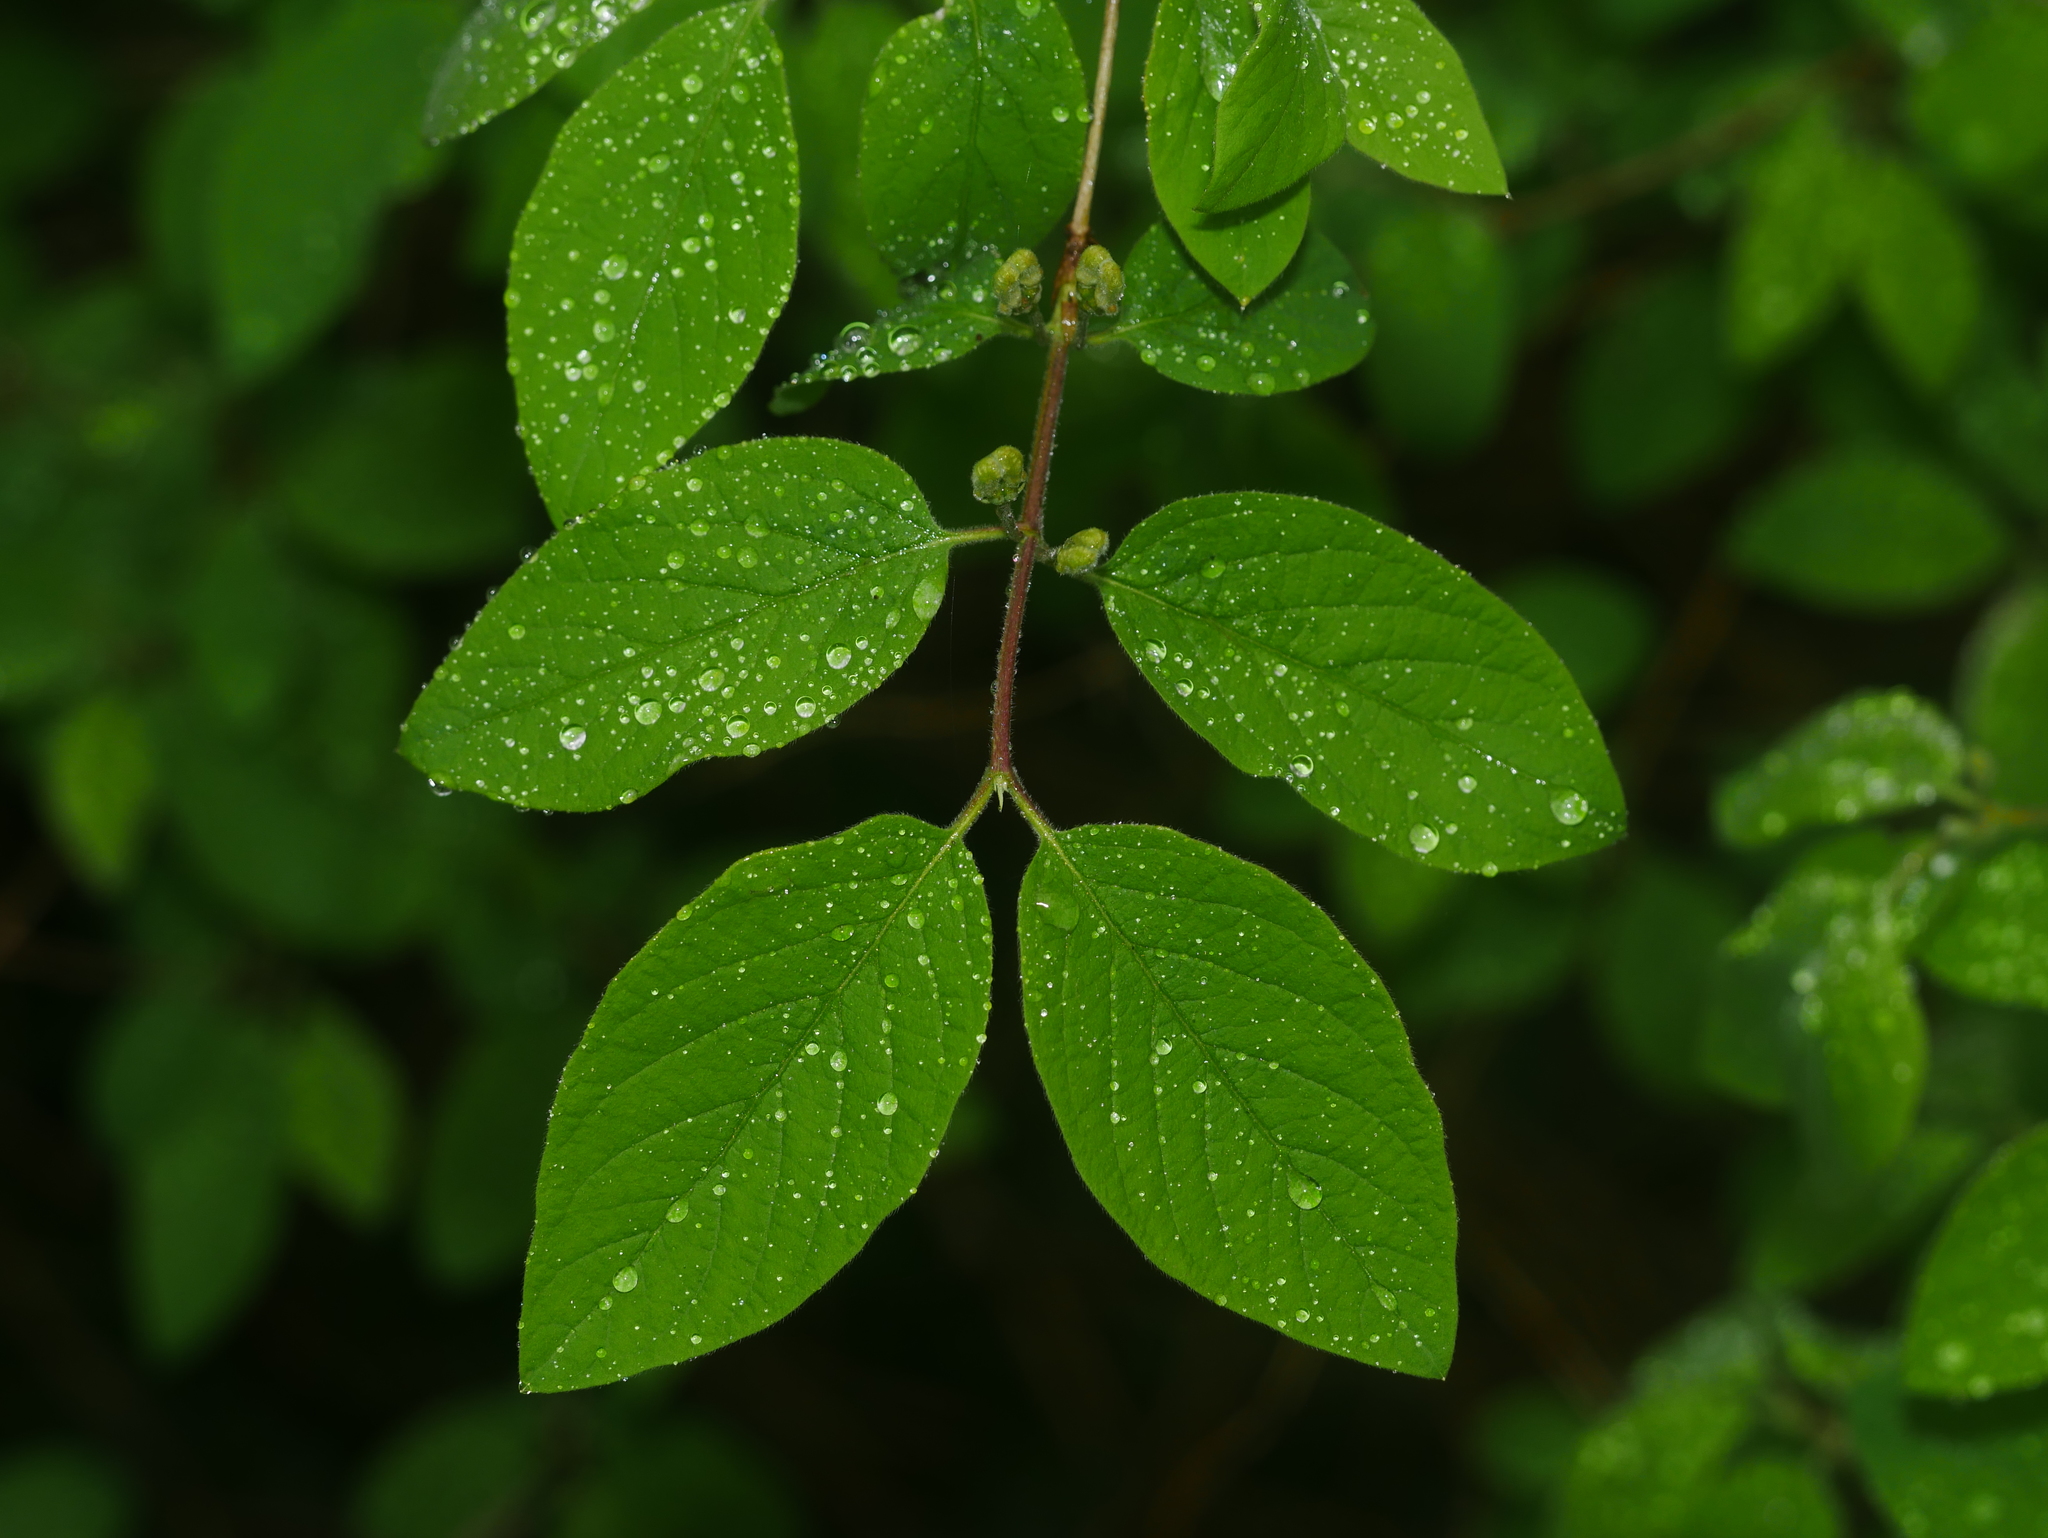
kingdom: Plantae
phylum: Tracheophyta
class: Magnoliopsida
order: Dipsacales
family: Caprifoliaceae
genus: Lonicera
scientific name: Lonicera xylosteum
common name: Fly honeysuckle
